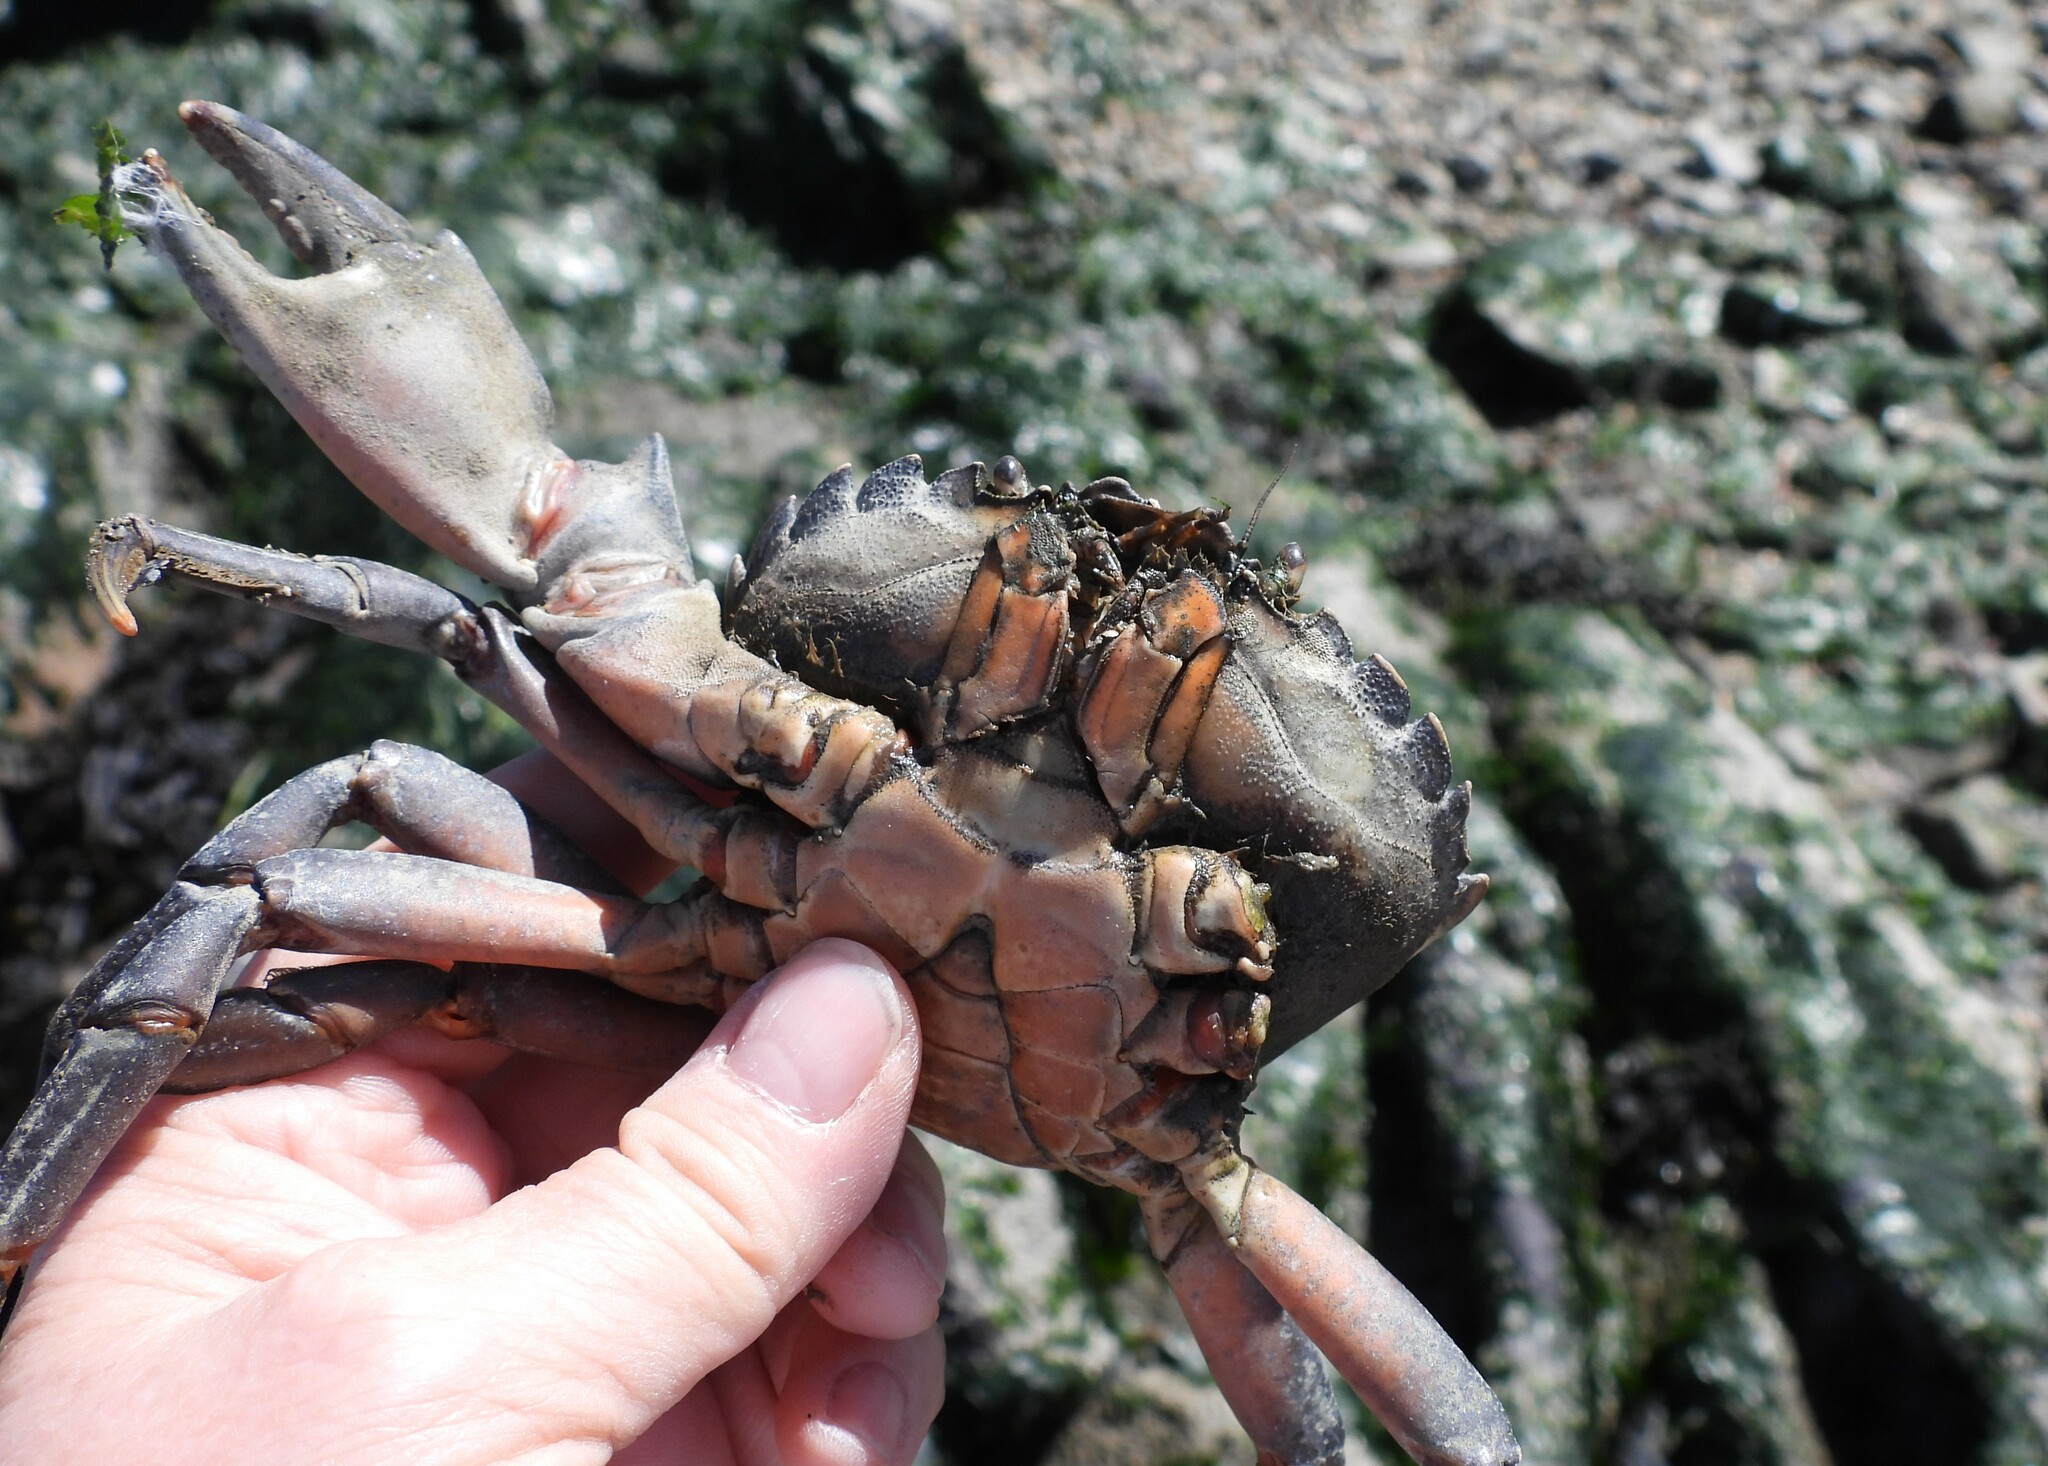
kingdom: Animalia
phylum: Arthropoda
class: Malacostraca
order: Decapoda
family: Carcinidae
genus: Carcinus
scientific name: Carcinus maenas
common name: European green crab
